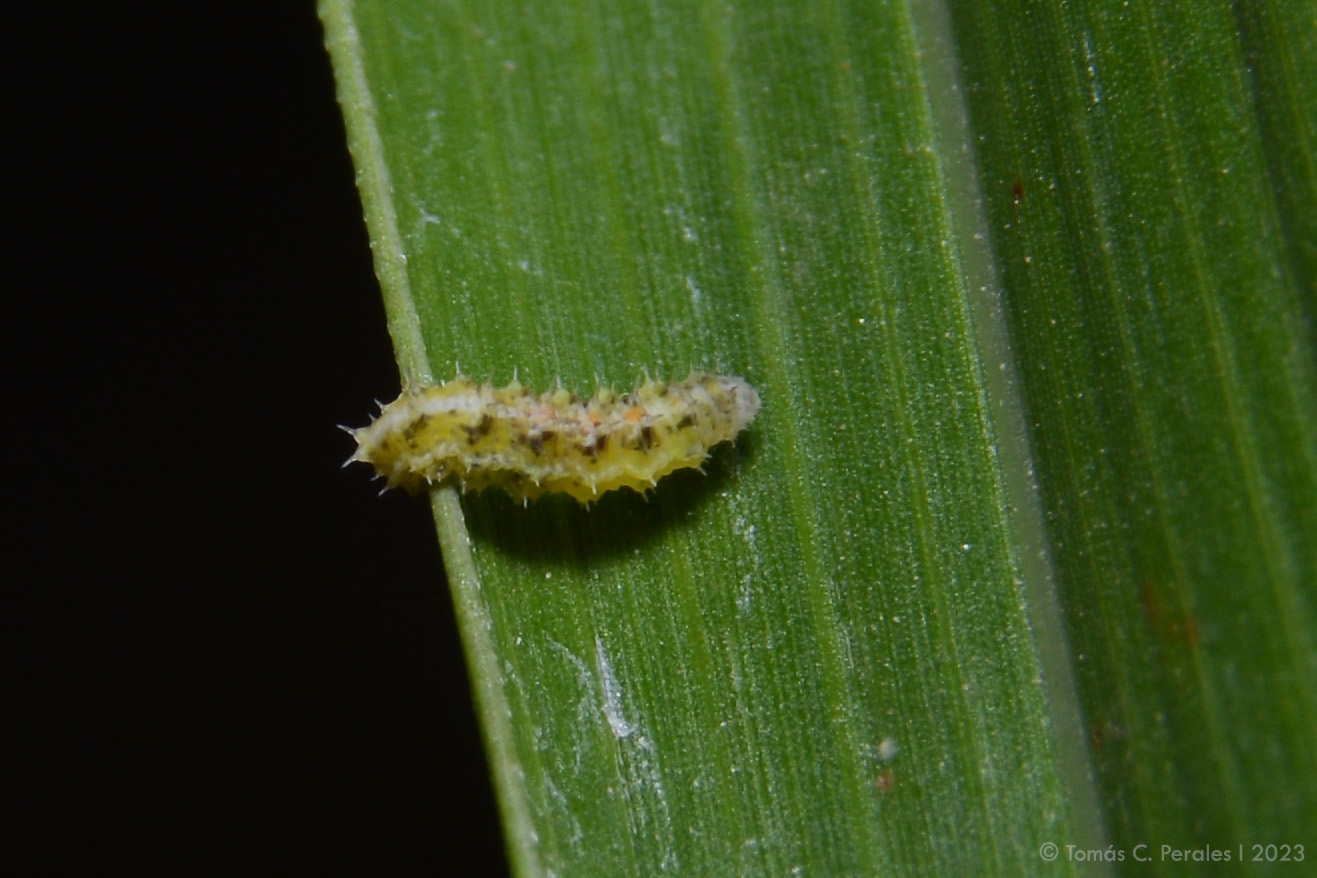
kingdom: Animalia
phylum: Arthropoda
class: Insecta
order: Diptera
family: Syrphidae
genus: Dioprosopa
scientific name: Dioprosopa clavatus
